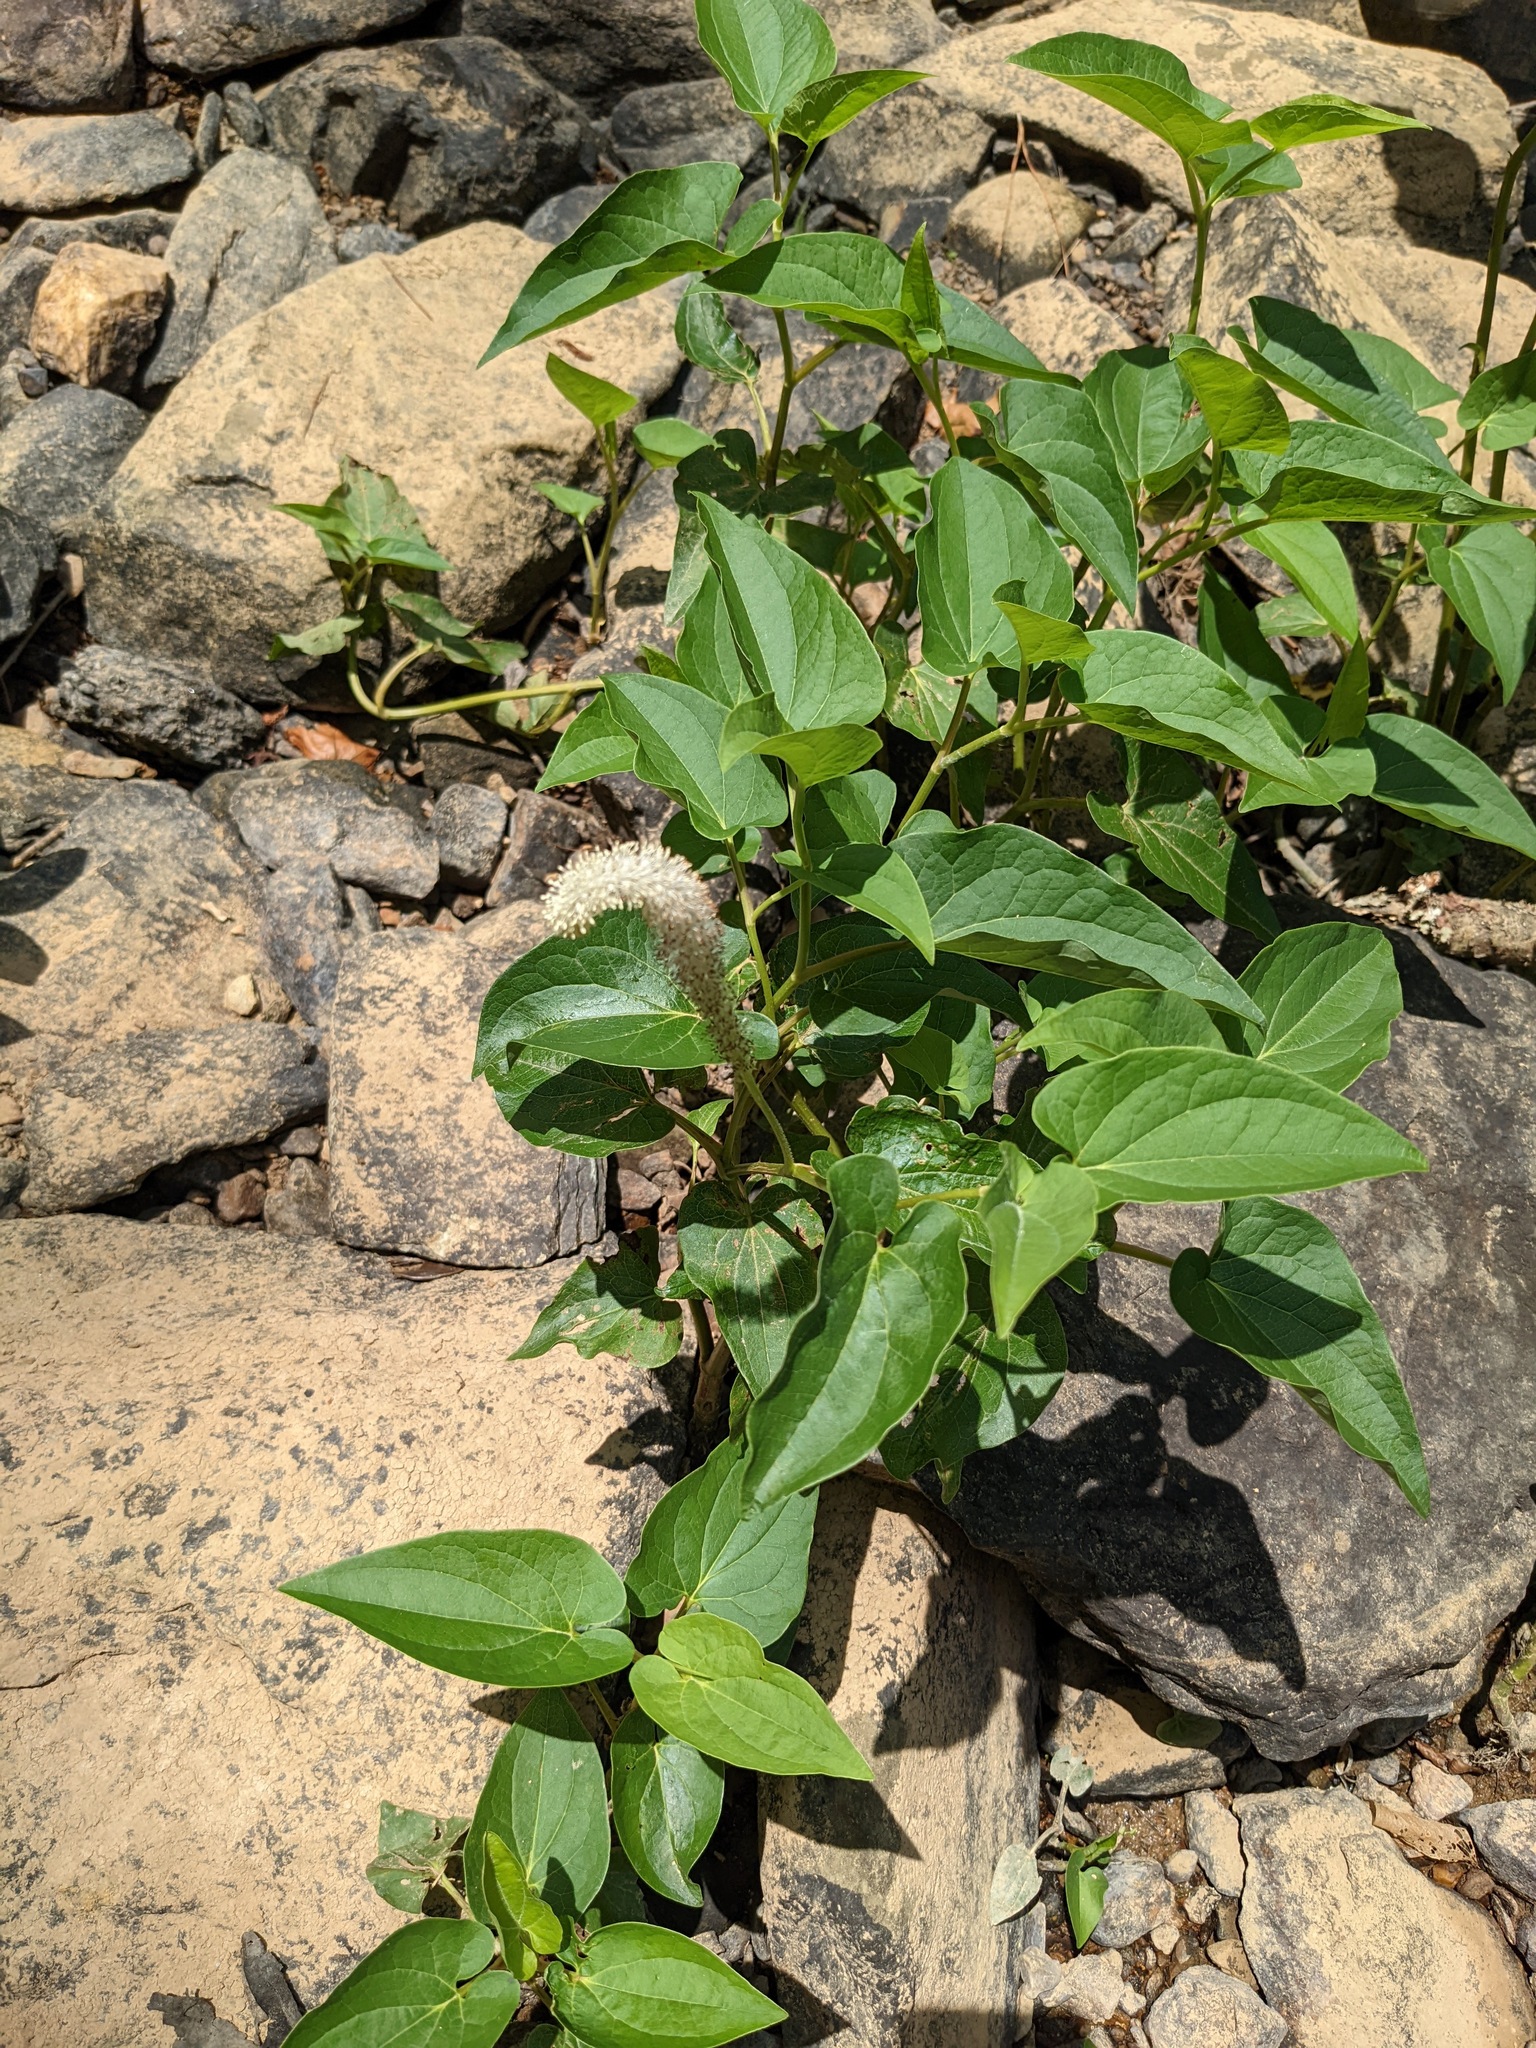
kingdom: Plantae
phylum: Tracheophyta
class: Magnoliopsida
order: Piperales
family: Saururaceae
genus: Saururus
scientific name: Saururus cernuus
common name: Lizard's-tail
